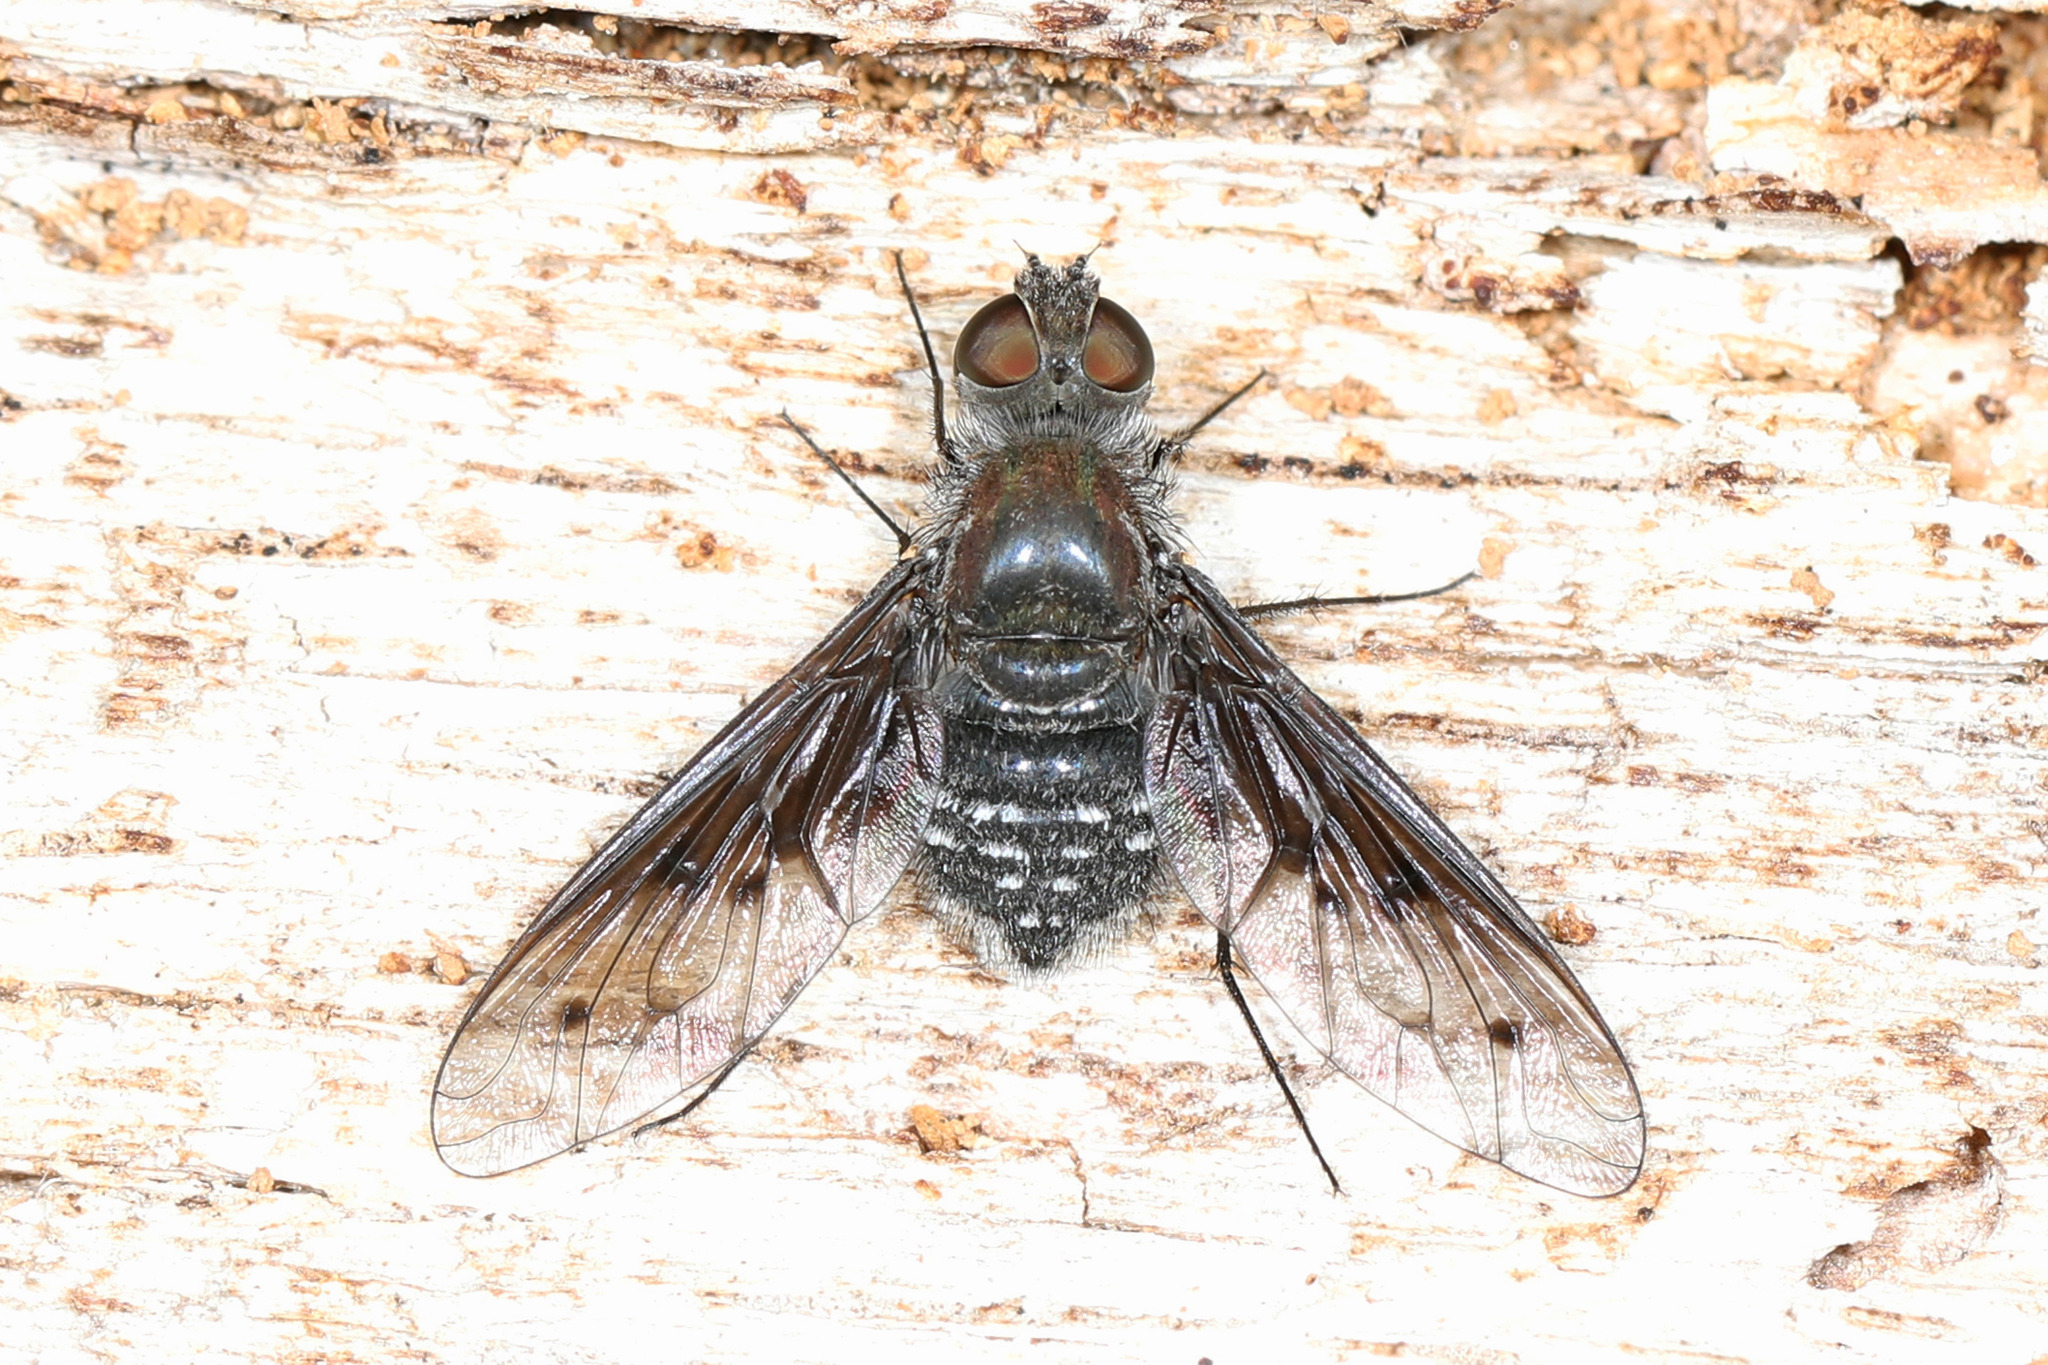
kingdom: Animalia
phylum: Arthropoda
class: Insecta
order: Diptera
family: Bombyliidae
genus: Anthrax
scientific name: Anthrax albofasciatus
